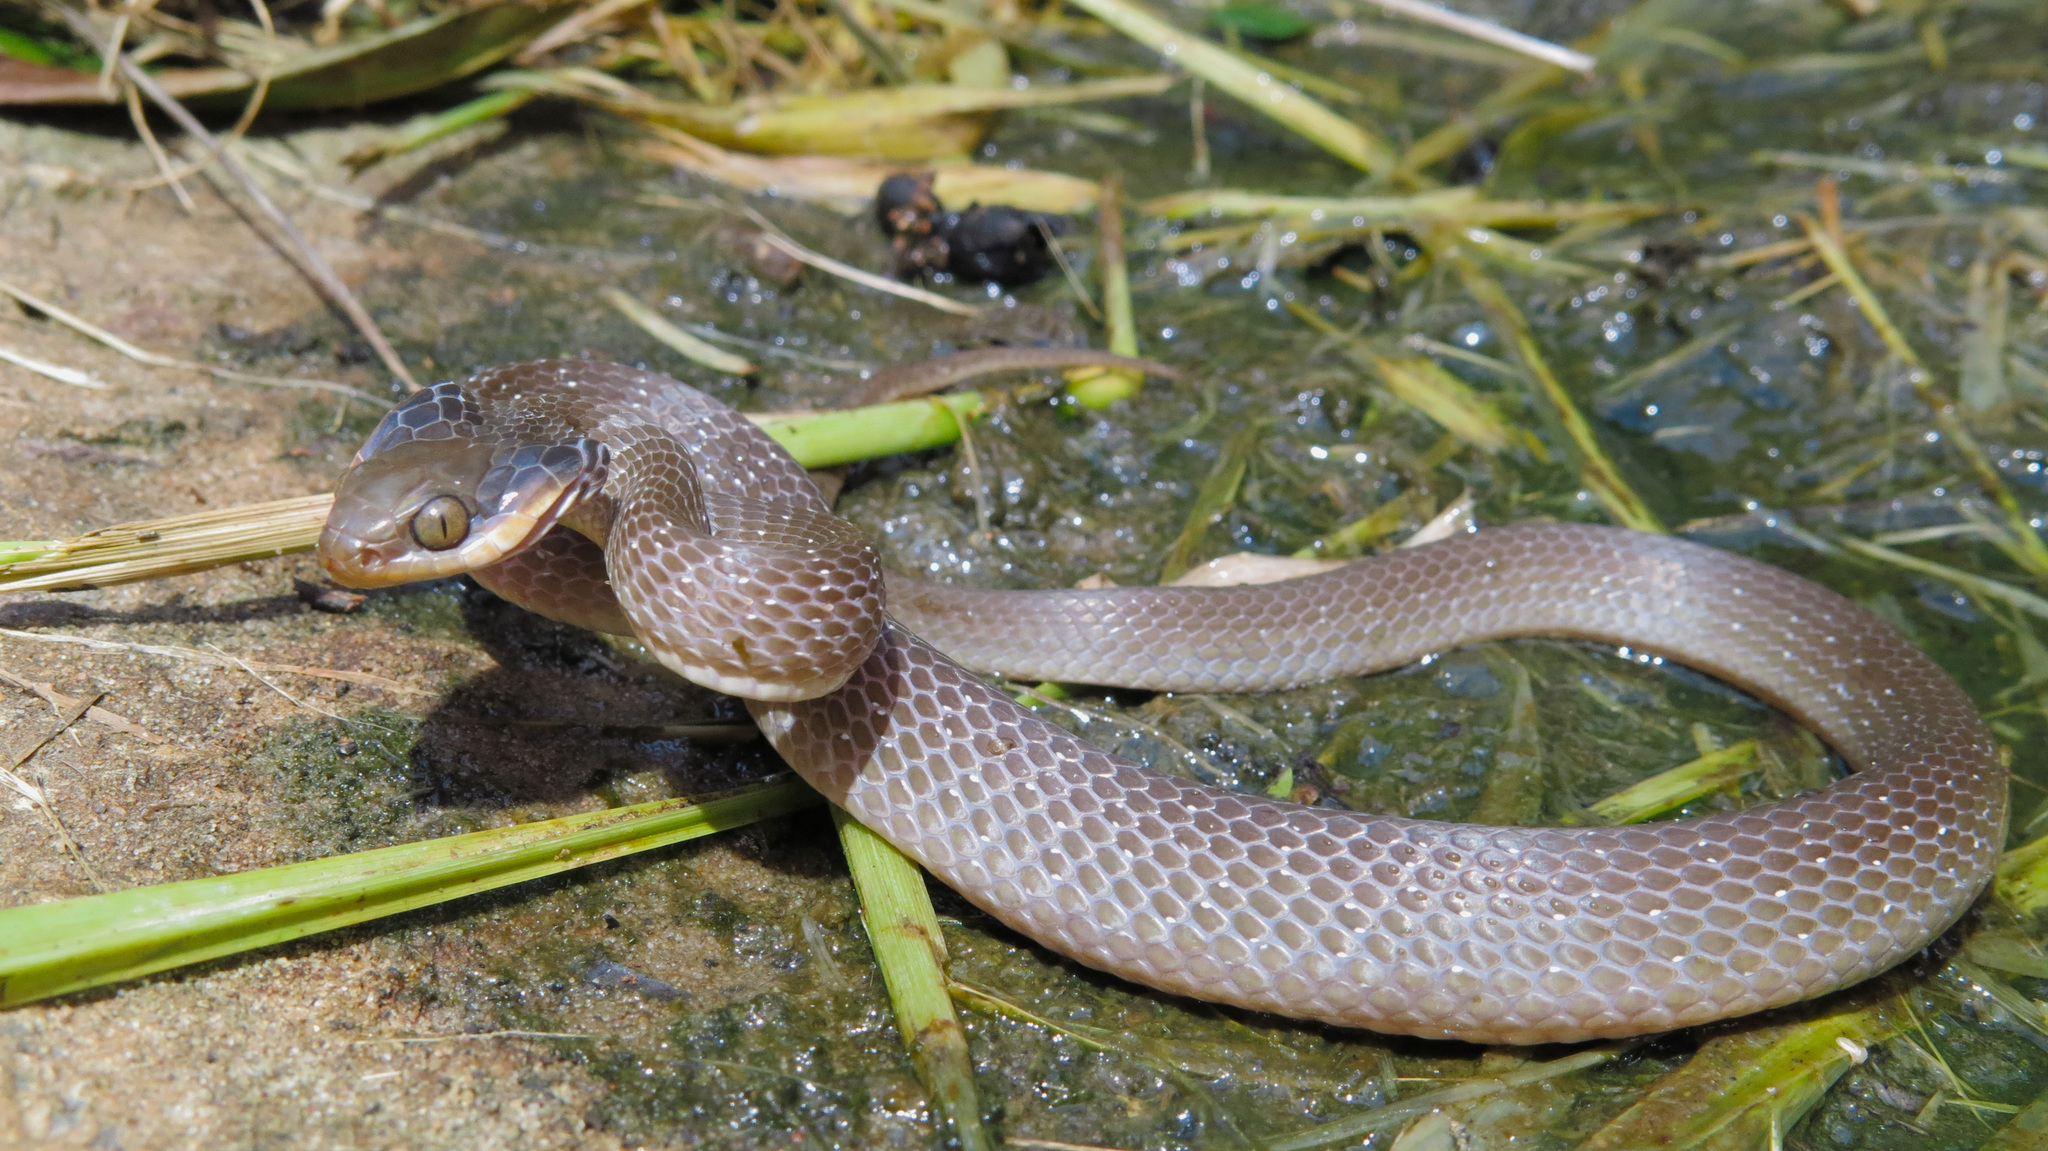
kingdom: Animalia
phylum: Chordata
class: Squamata
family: Colubridae
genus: Crotaphopeltis
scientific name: Crotaphopeltis hotamboeia
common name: Red-lipped snake
